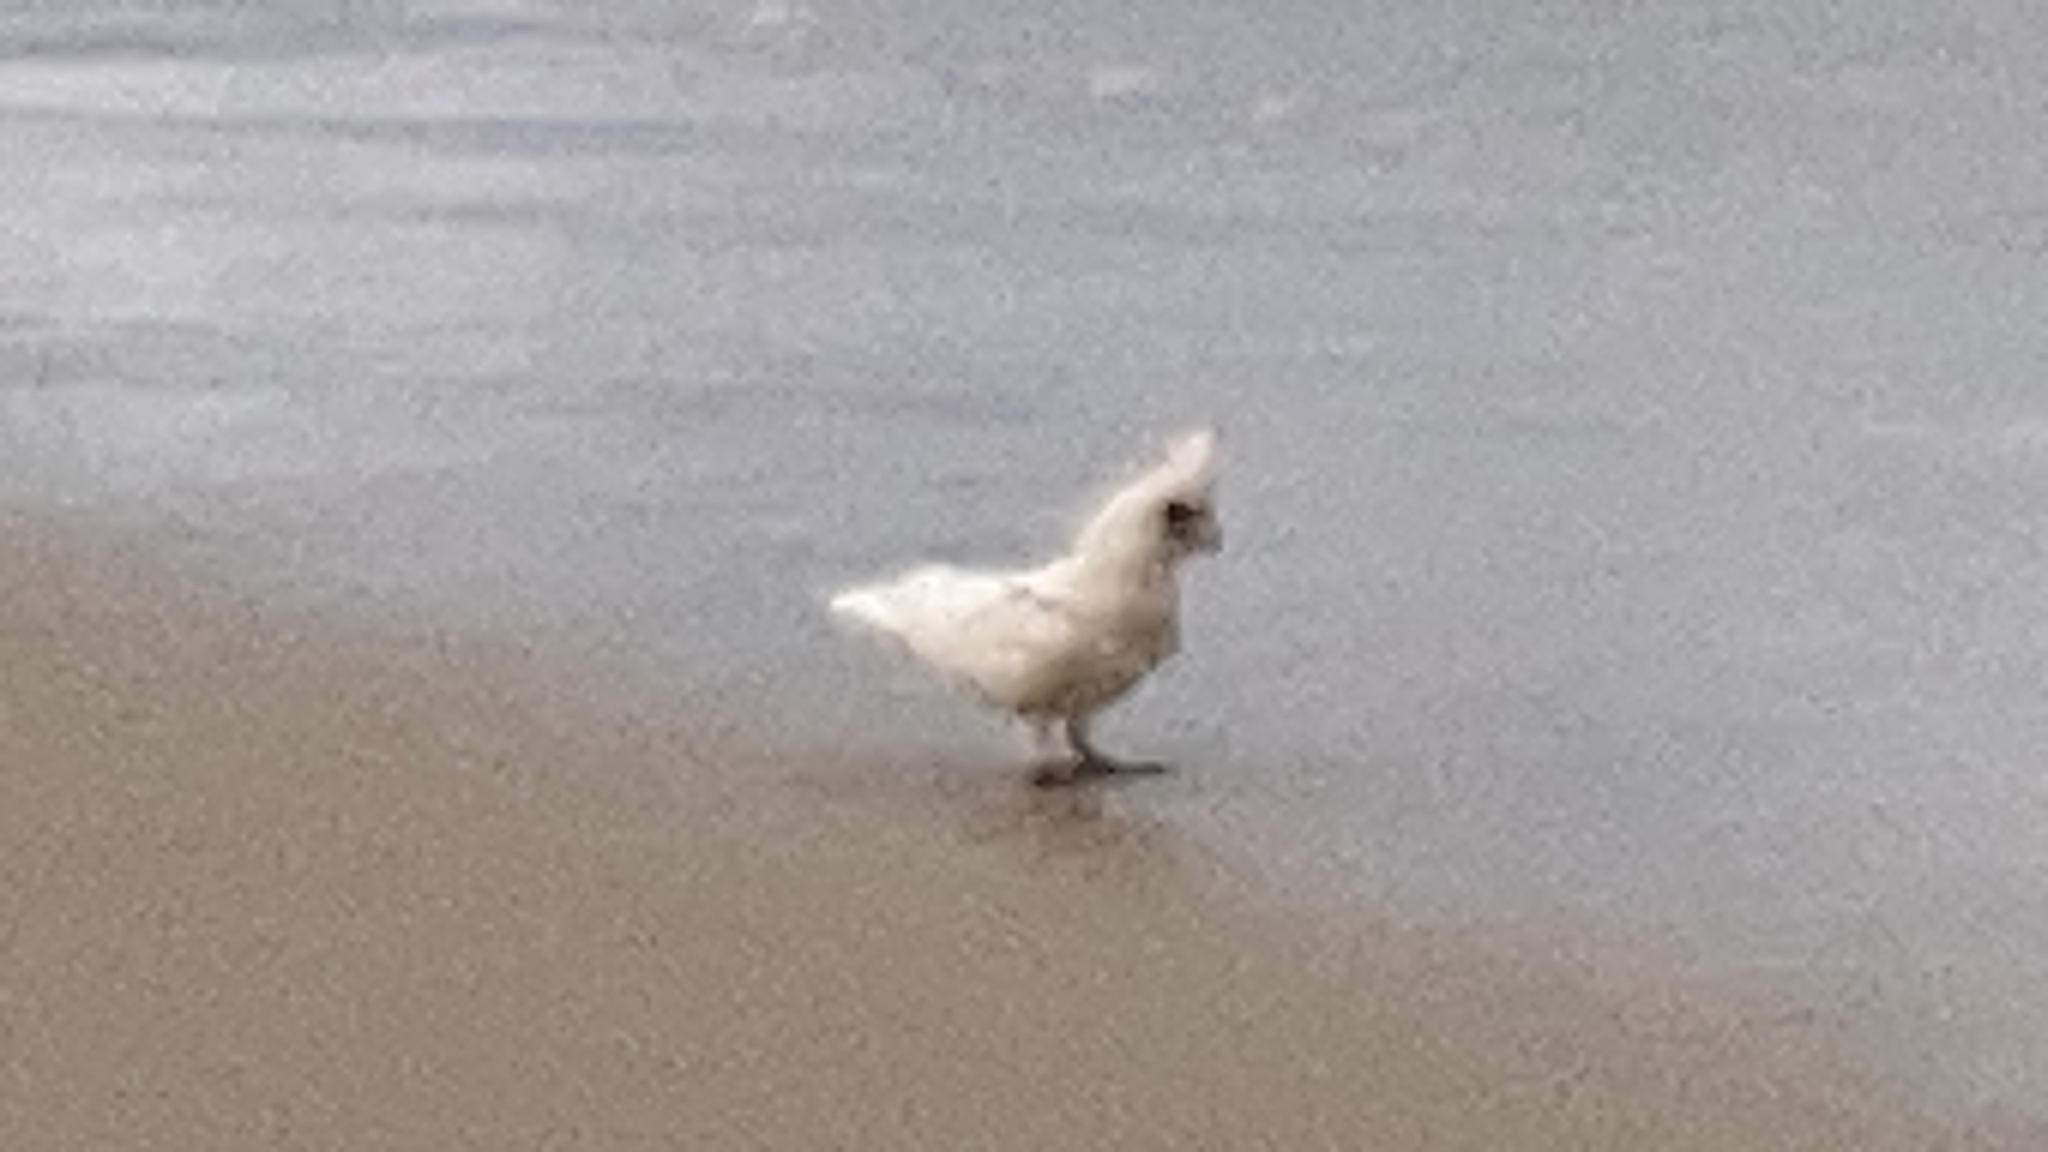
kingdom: Animalia
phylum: Chordata
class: Aves
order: Psittaciformes
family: Psittacidae
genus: Cacatua
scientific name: Cacatua sanguinea
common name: Little corella
